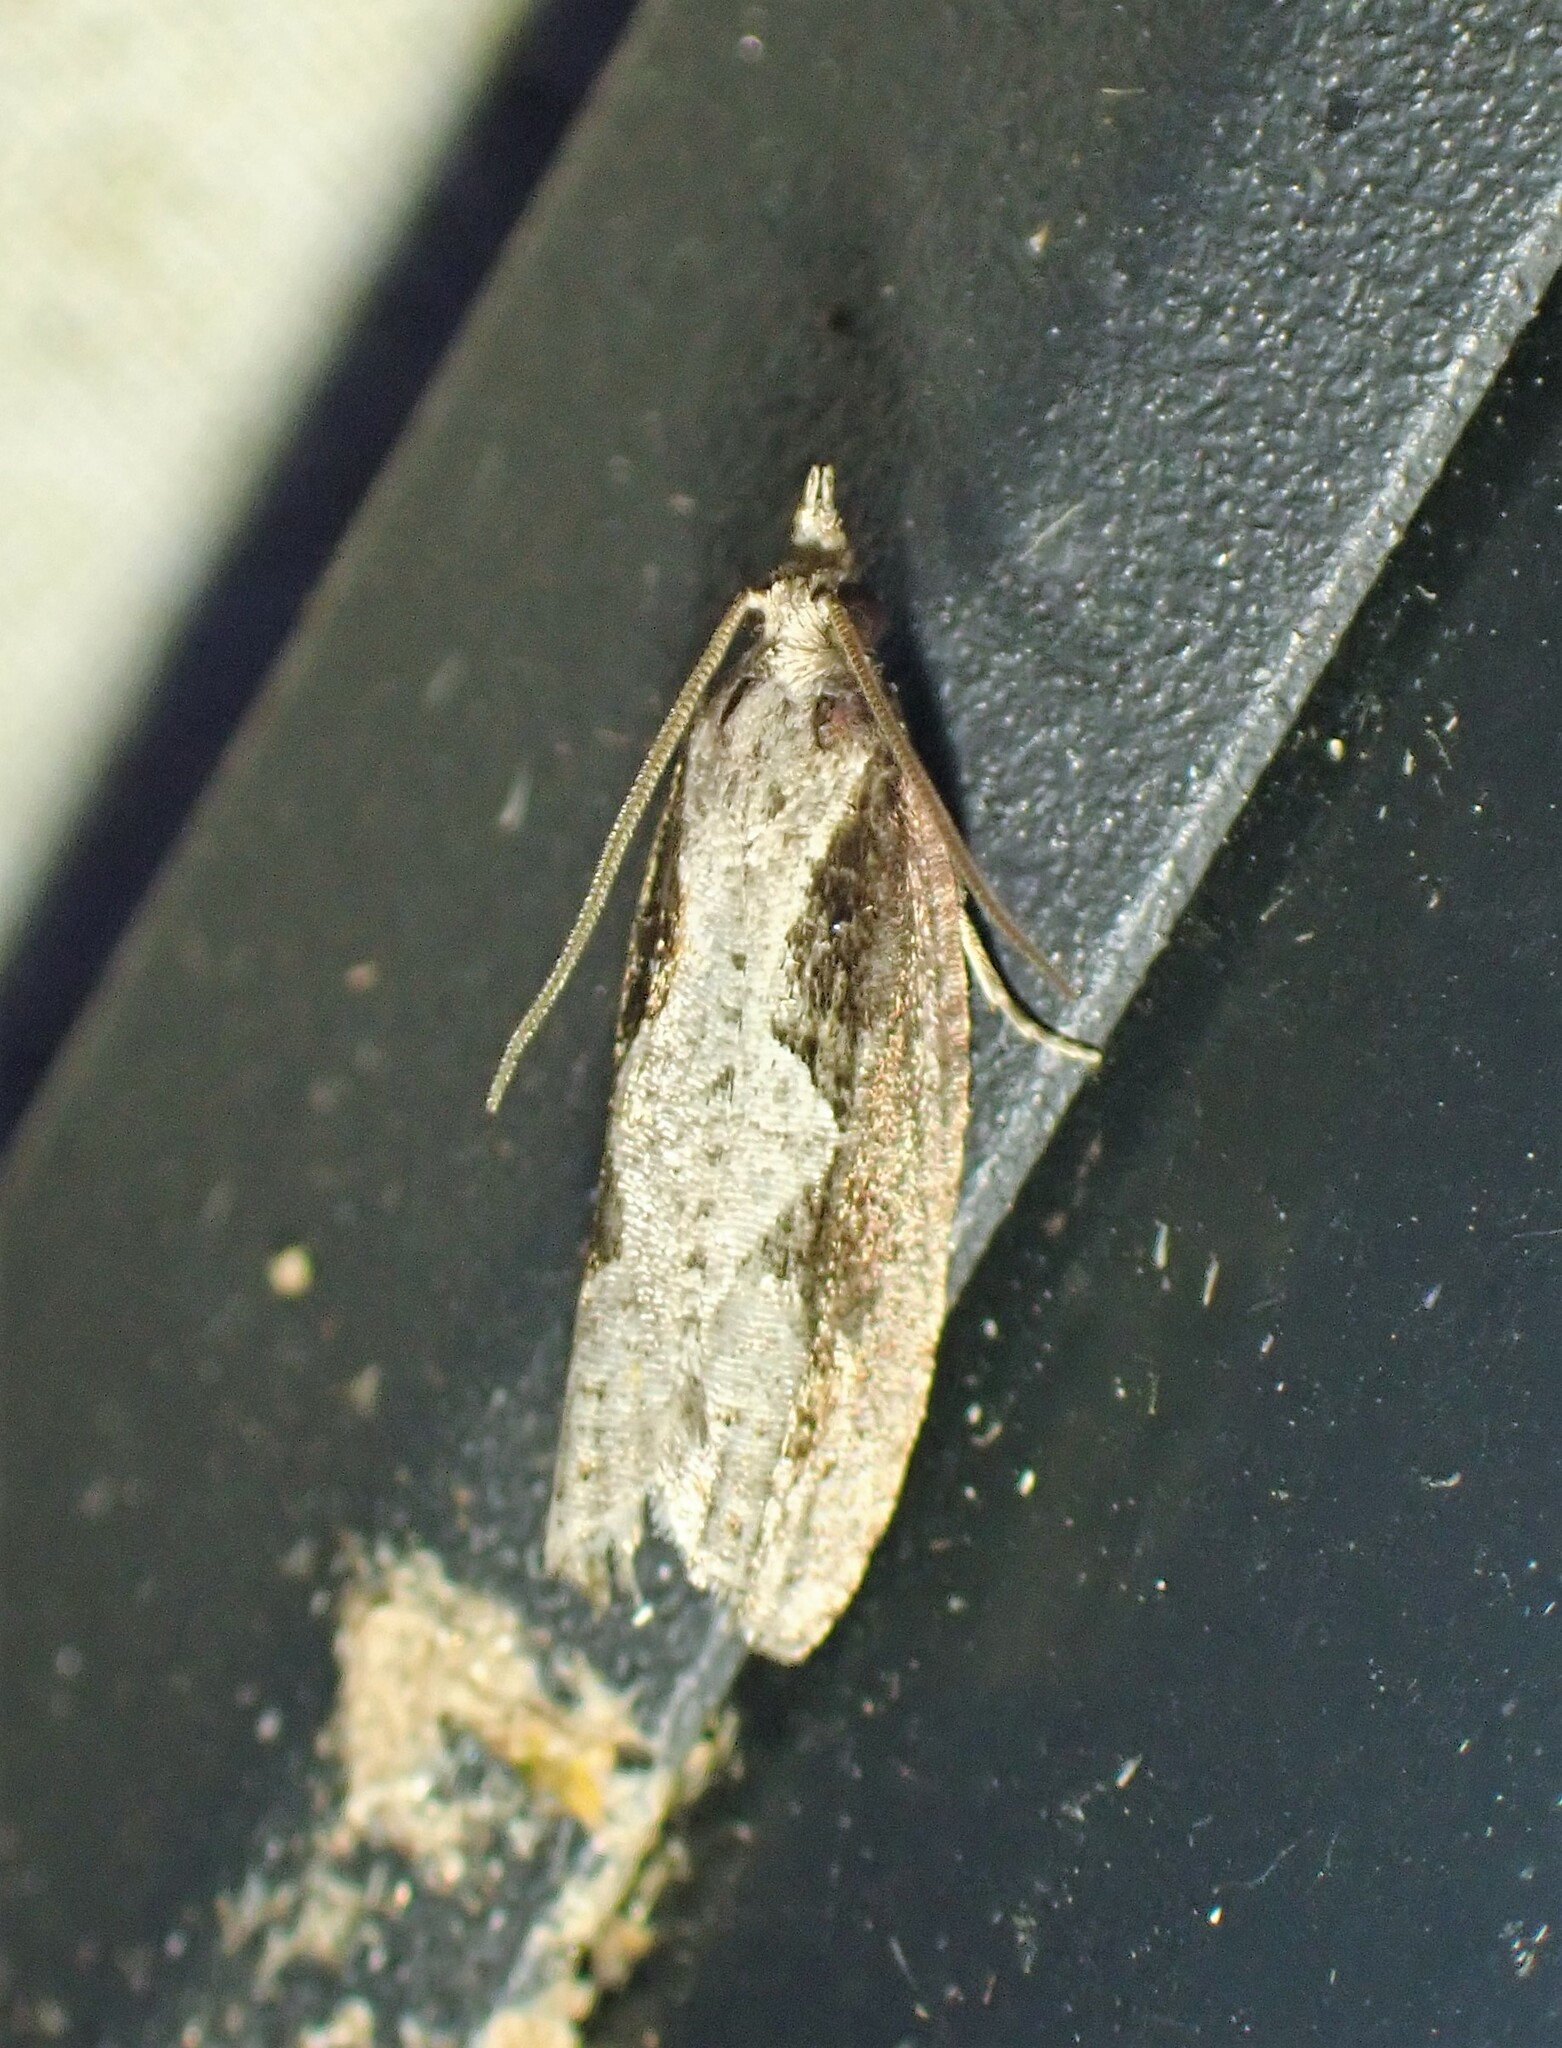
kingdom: Animalia
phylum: Arthropoda
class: Insecta
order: Lepidoptera
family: Tortricidae
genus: Epinotia
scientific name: Epinotia lindana
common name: Diamondback epinotia moth
